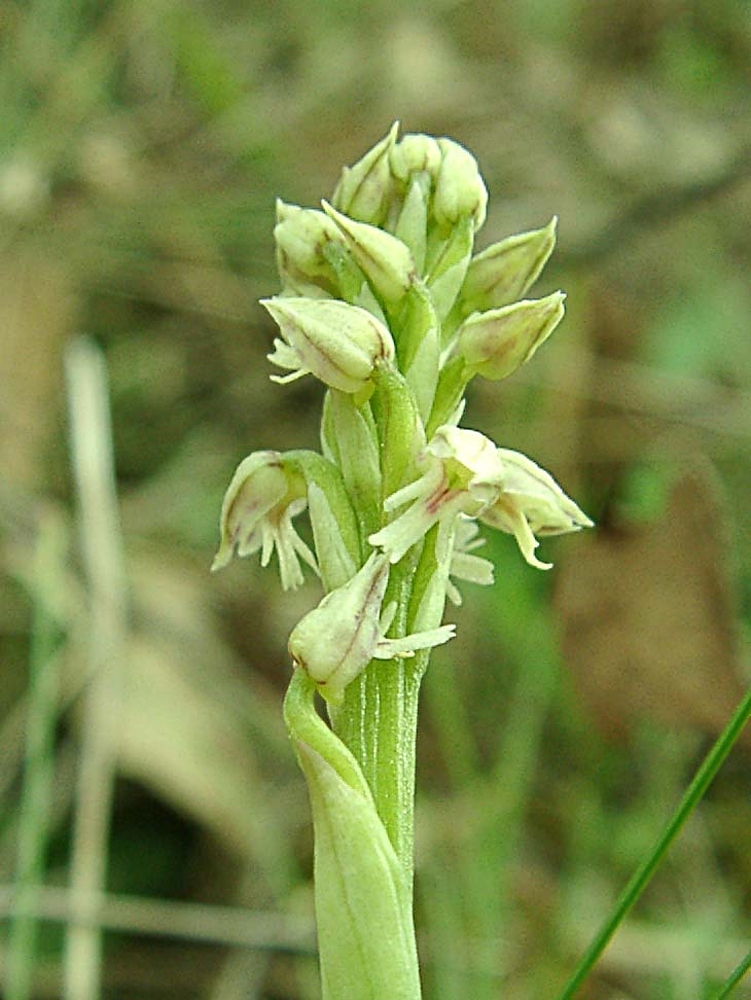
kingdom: Plantae
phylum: Tracheophyta
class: Liliopsida
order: Asparagales
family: Orchidaceae
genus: Neotinea
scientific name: Neotinea maculata
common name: Dense-flowered orchid
